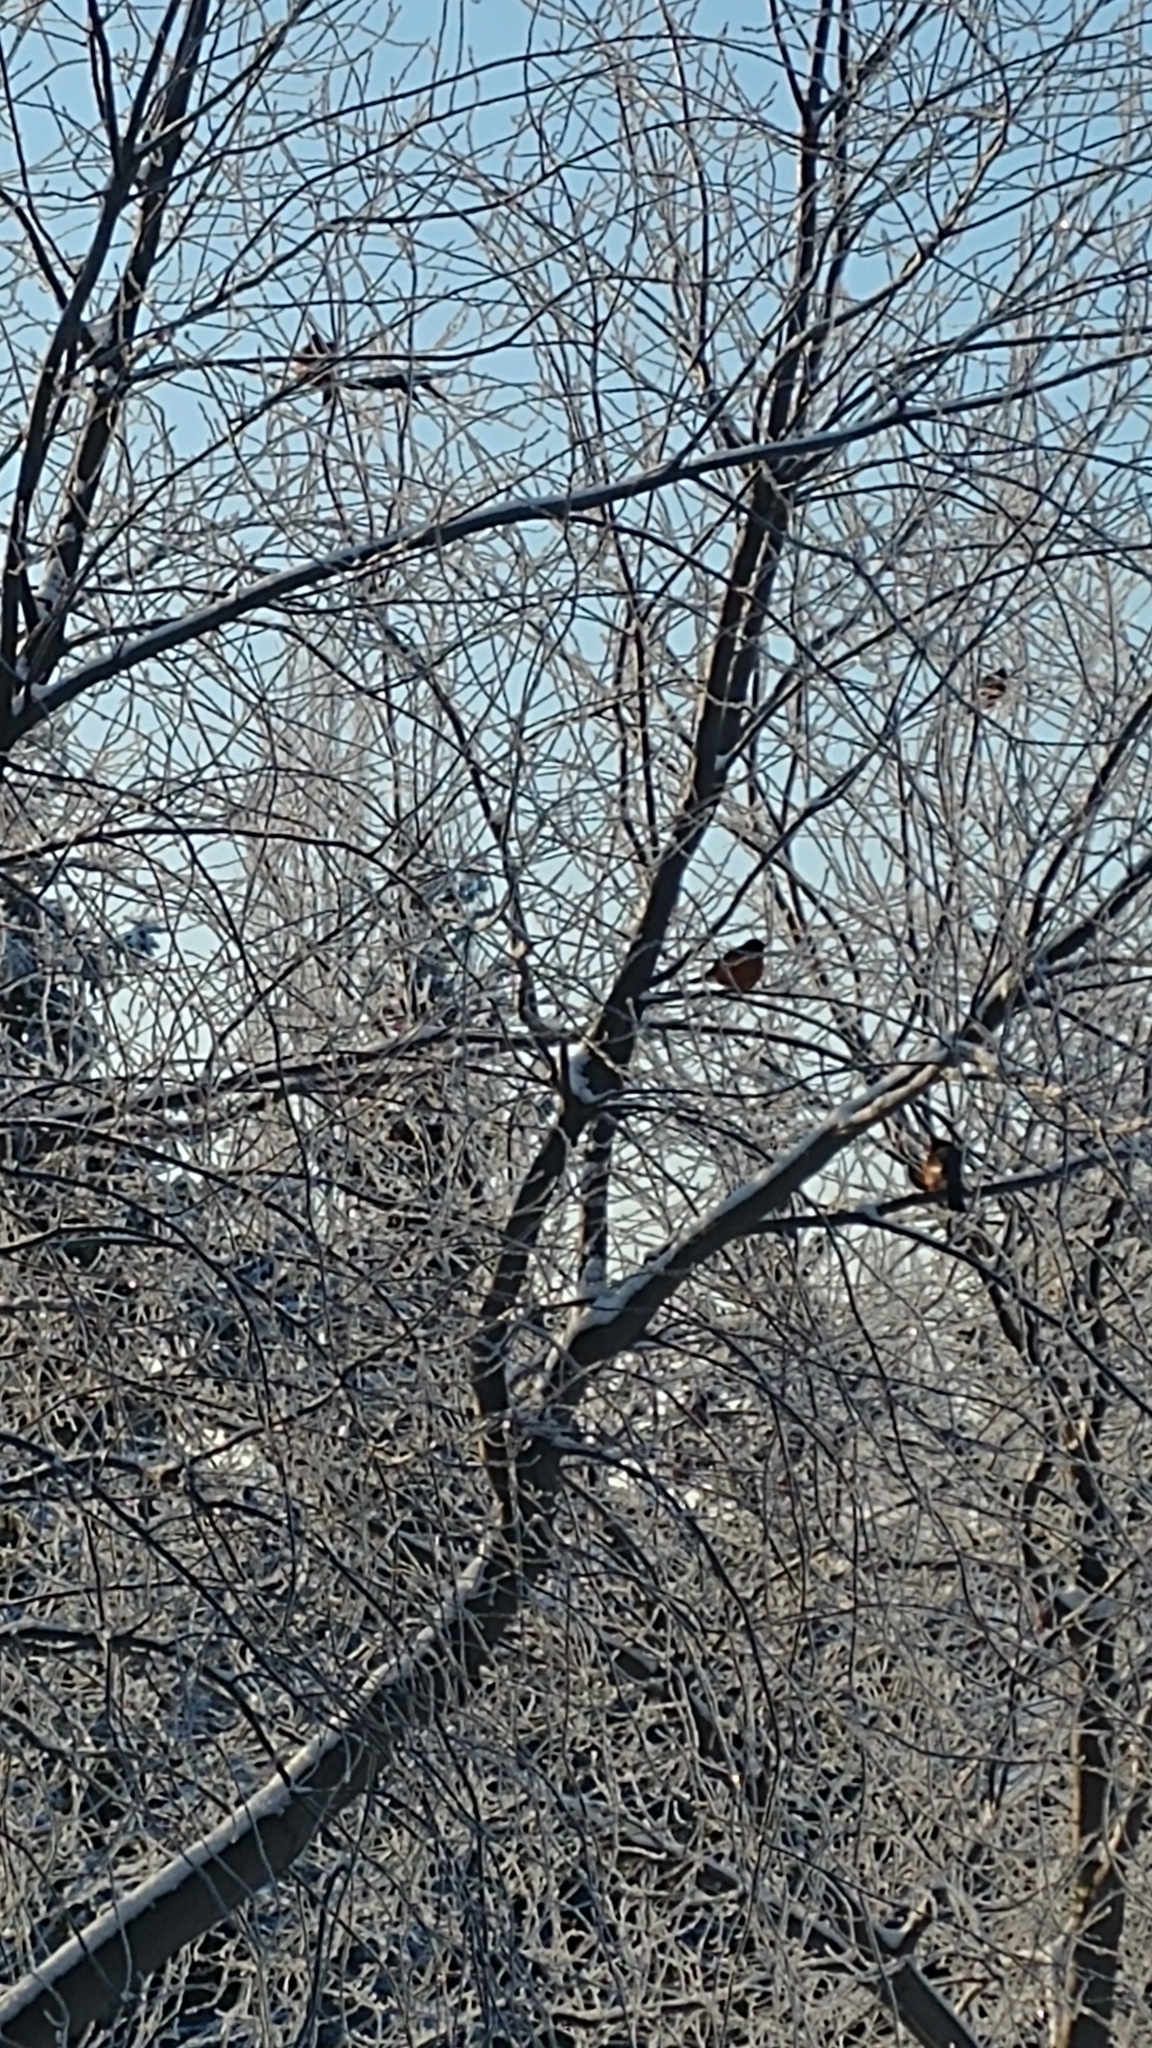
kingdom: Animalia
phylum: Chordata
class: Aves
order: Passeriformes
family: Turdidae
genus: Turdus
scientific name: Turdus migratorius
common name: American robin
